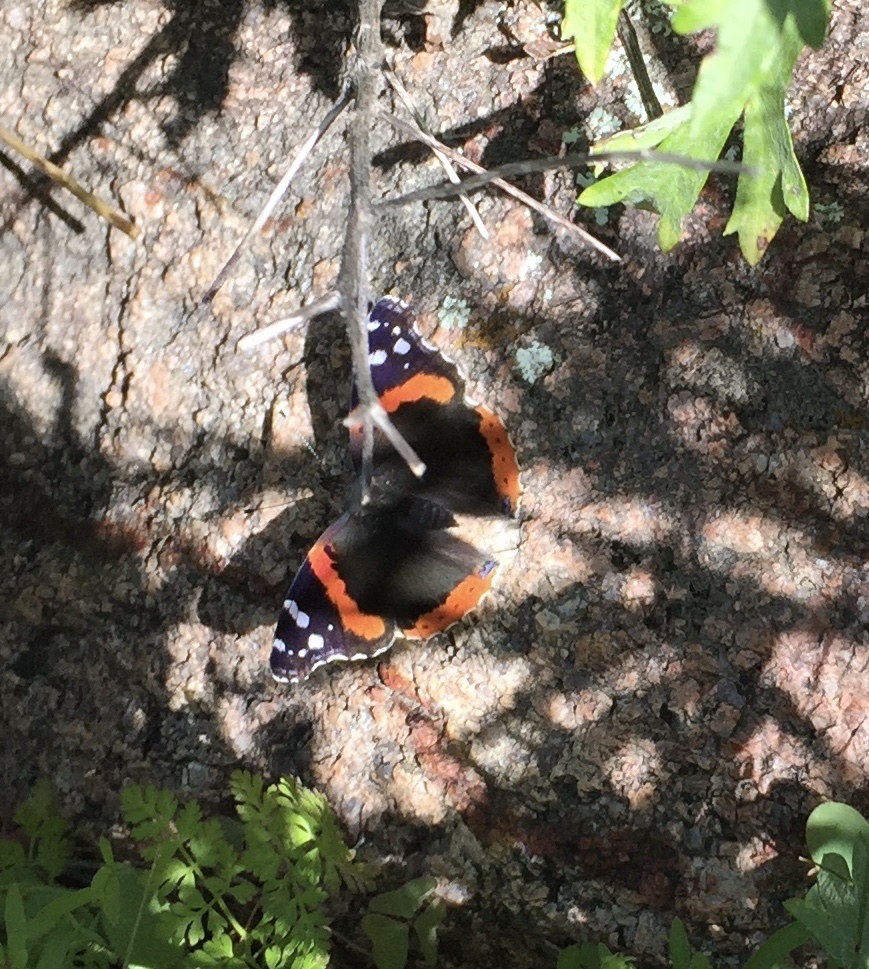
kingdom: Animalia
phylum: Arthropoda
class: Insecta
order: Lepidoptera
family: Nymphalidae
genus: Vanessa
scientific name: Vanessa atalanta
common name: Red admiral
